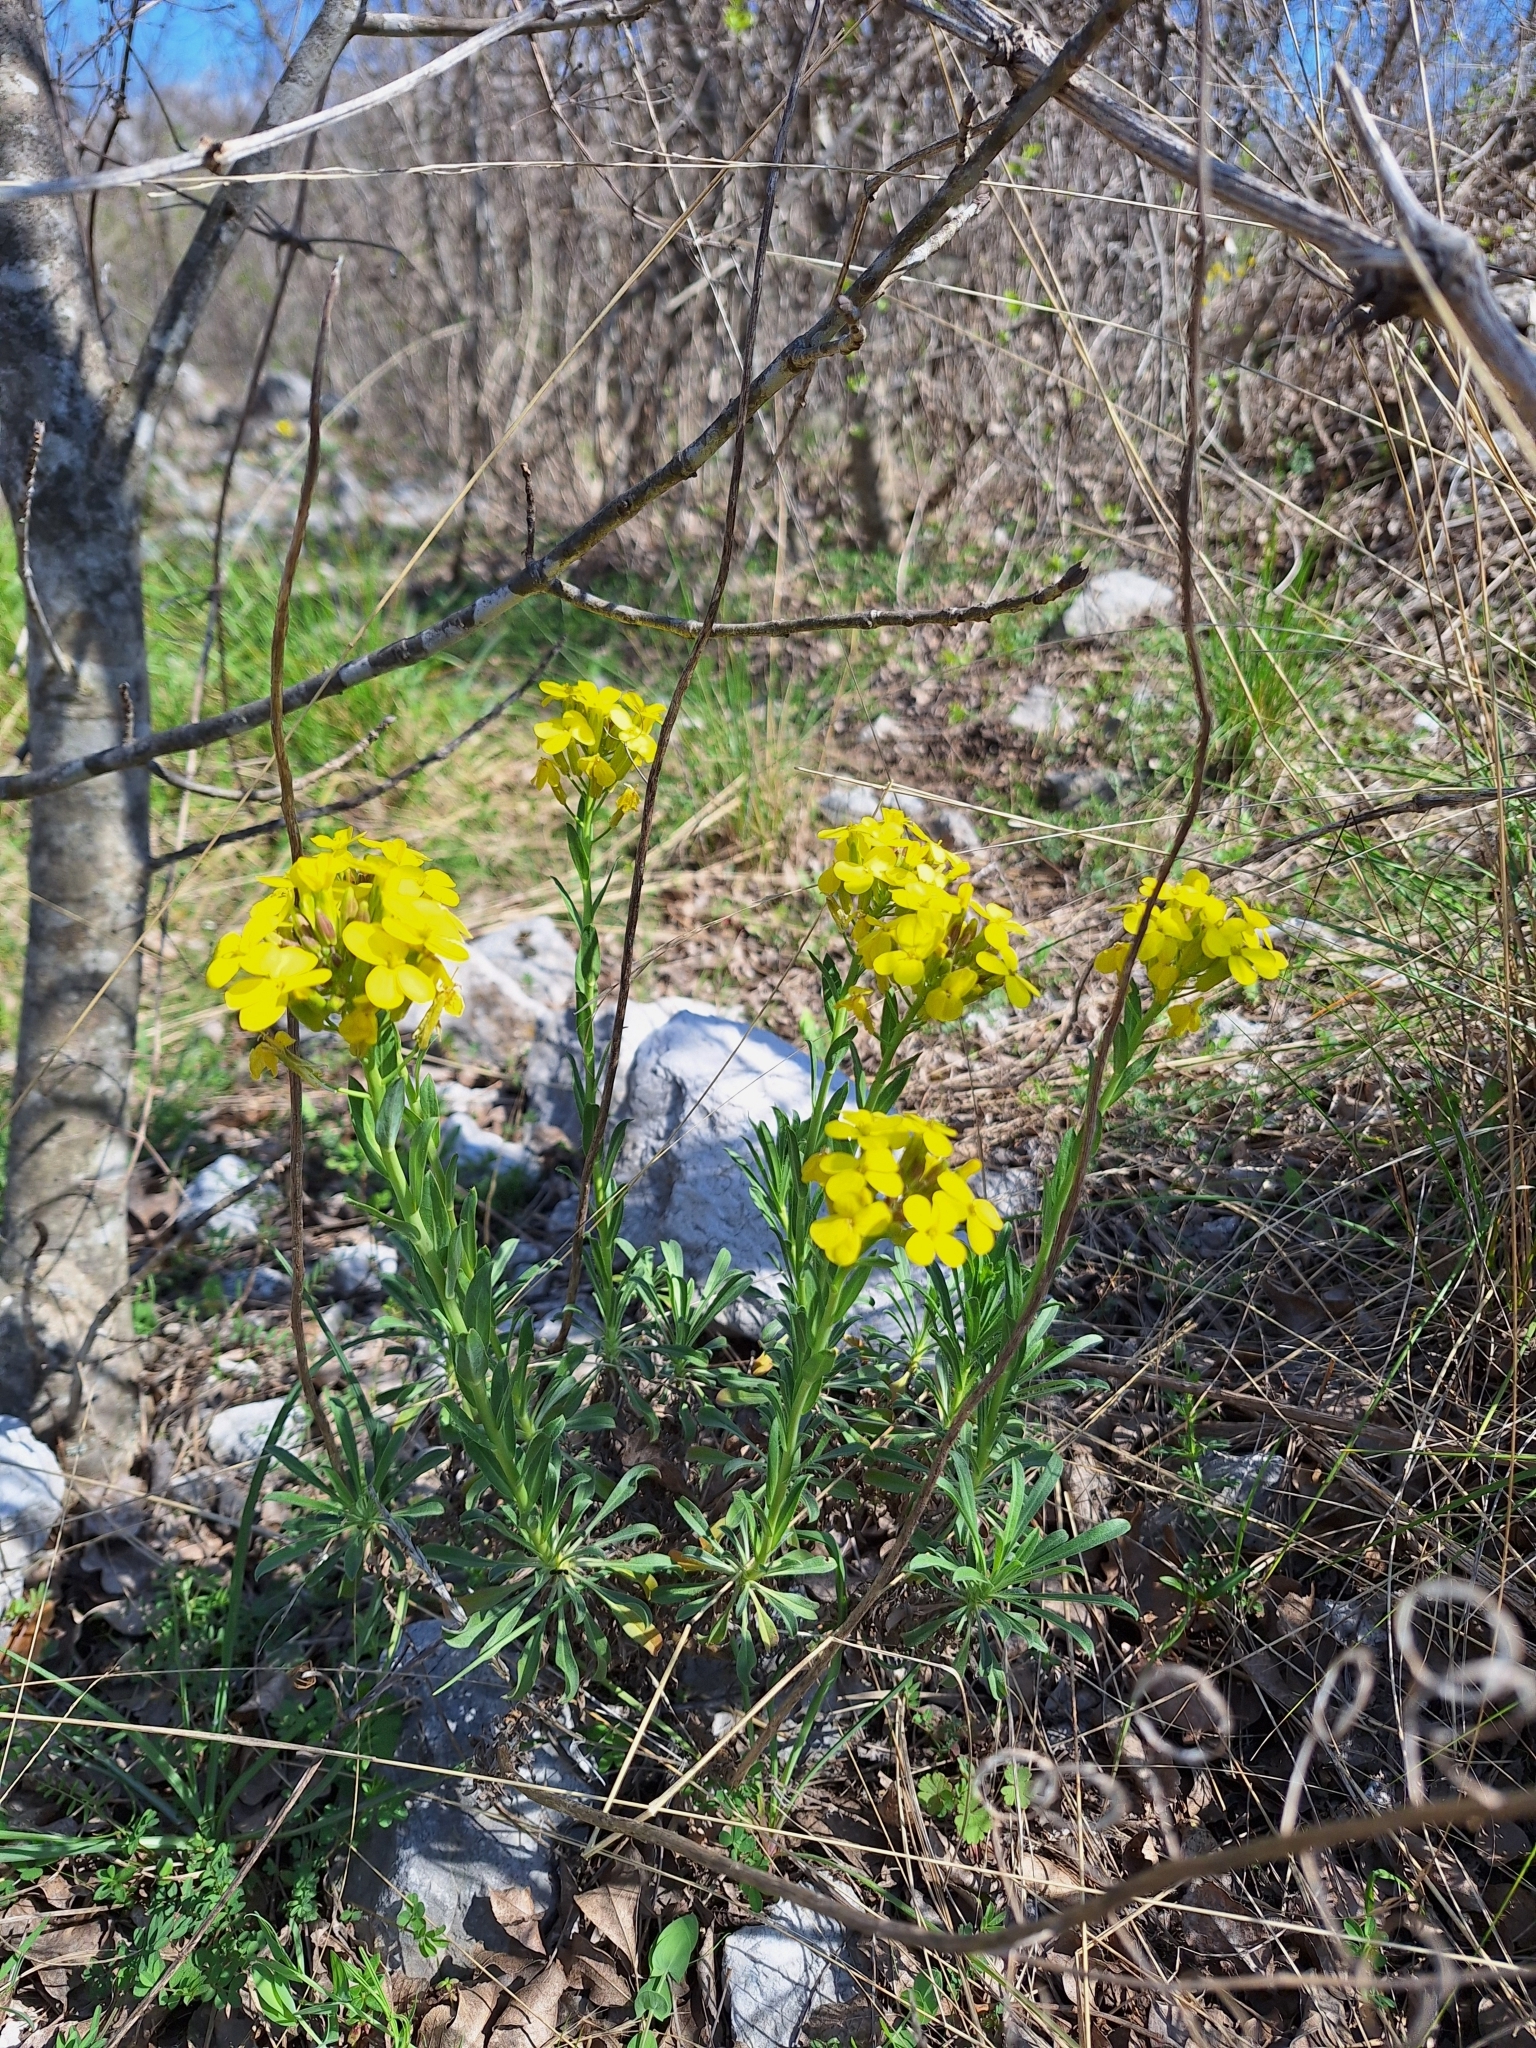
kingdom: Plantae
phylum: Tracheophyta
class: Magnoliopsida
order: Brassicales
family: Brassicaceae
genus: Alyssoides
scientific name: Alyssoides utriculata
